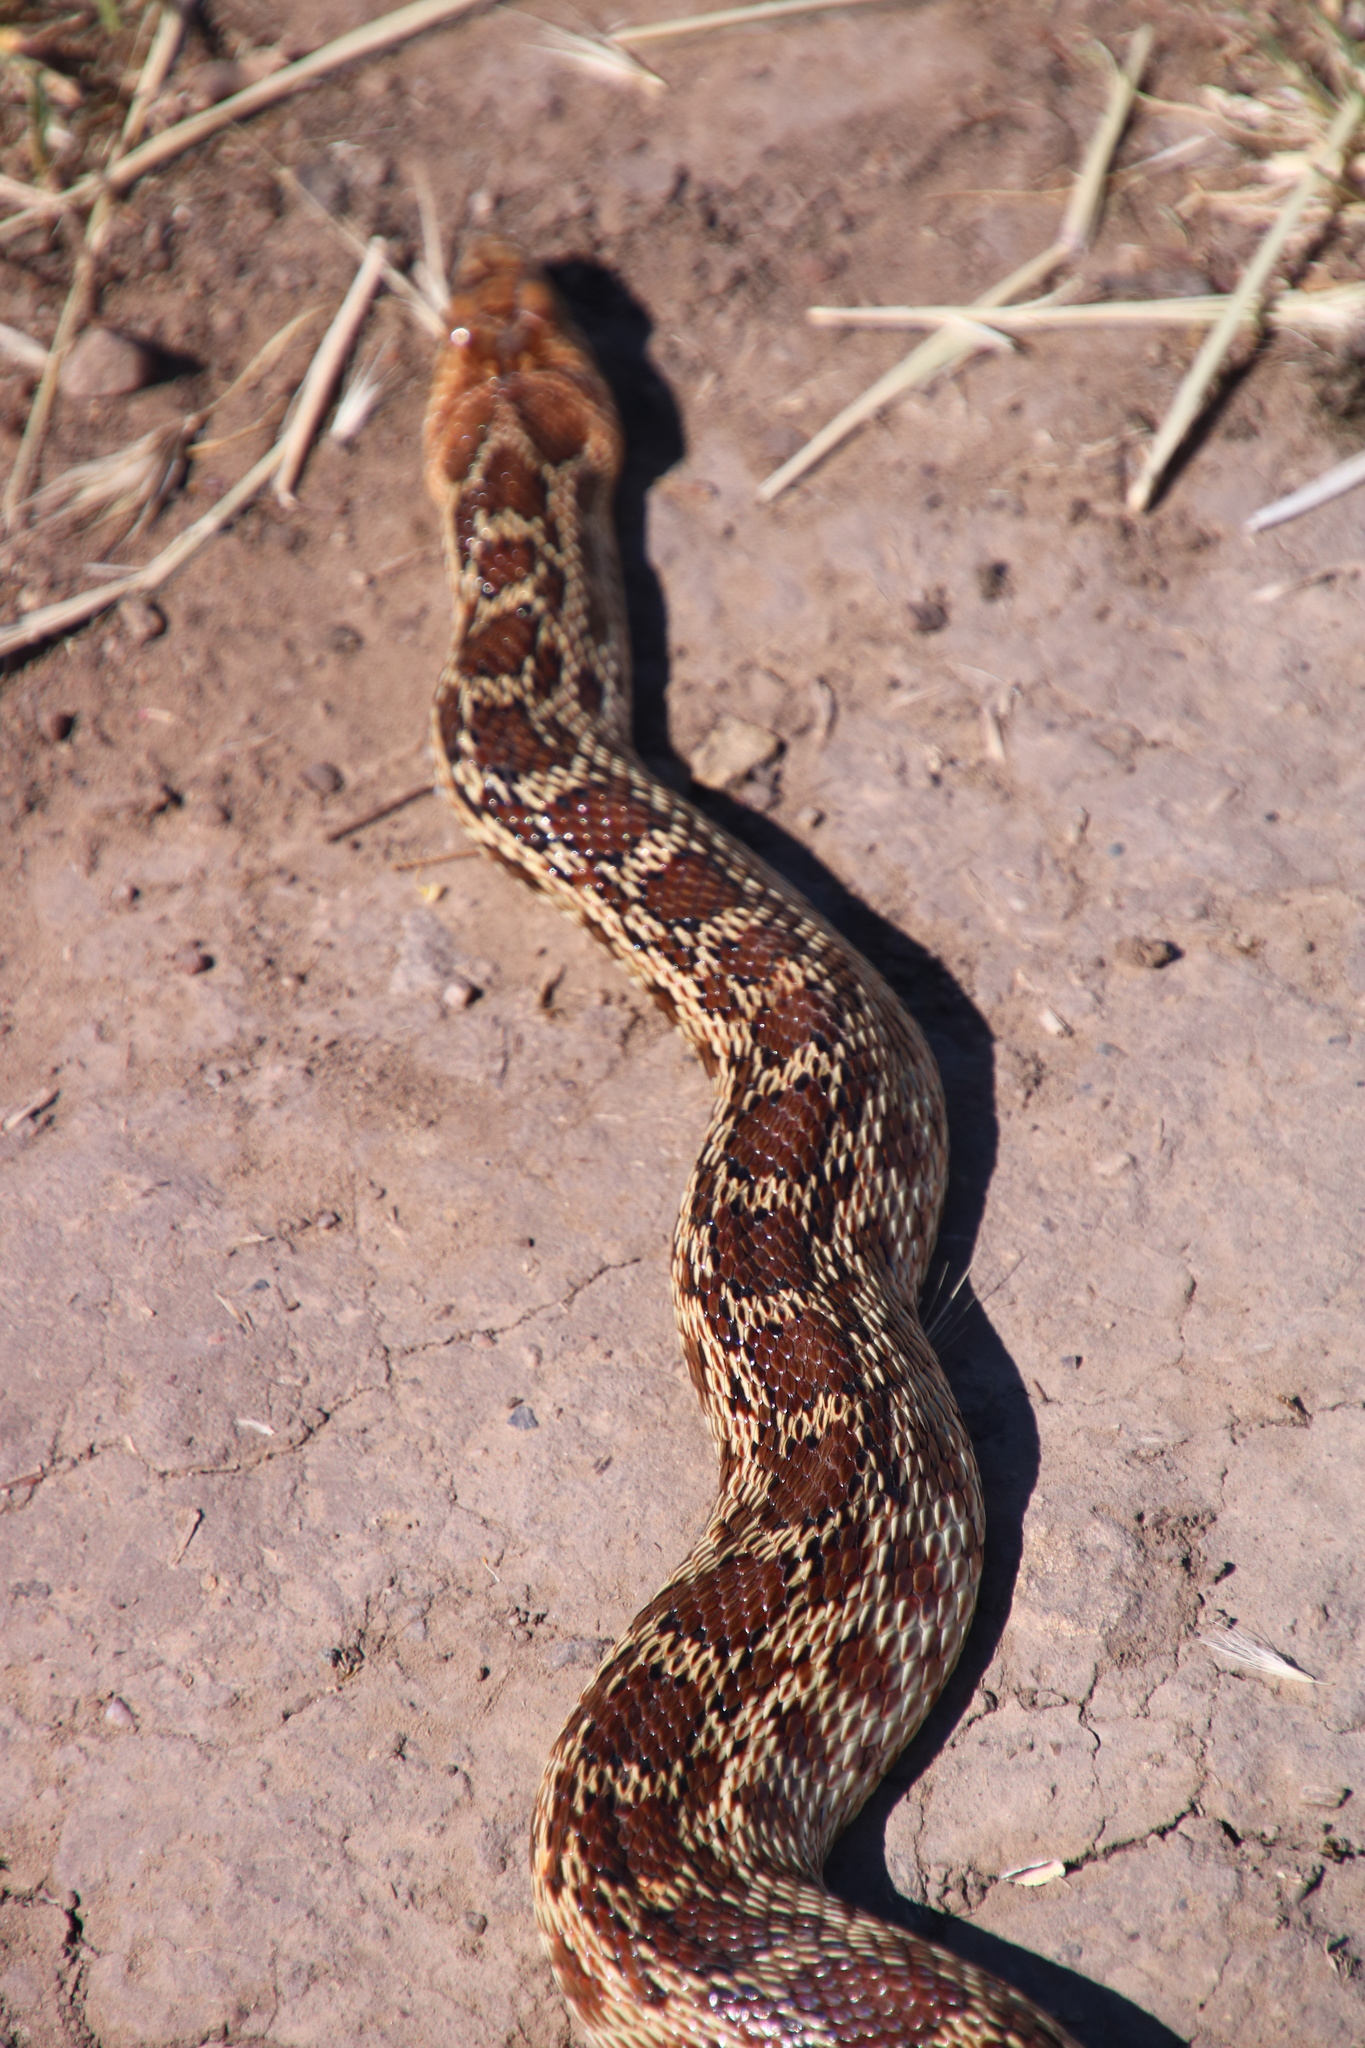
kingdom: Animalia
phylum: Chordata
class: Squamata
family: Colubridae
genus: Pituophis
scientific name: Pituophis catenifer
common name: Gopher snake
